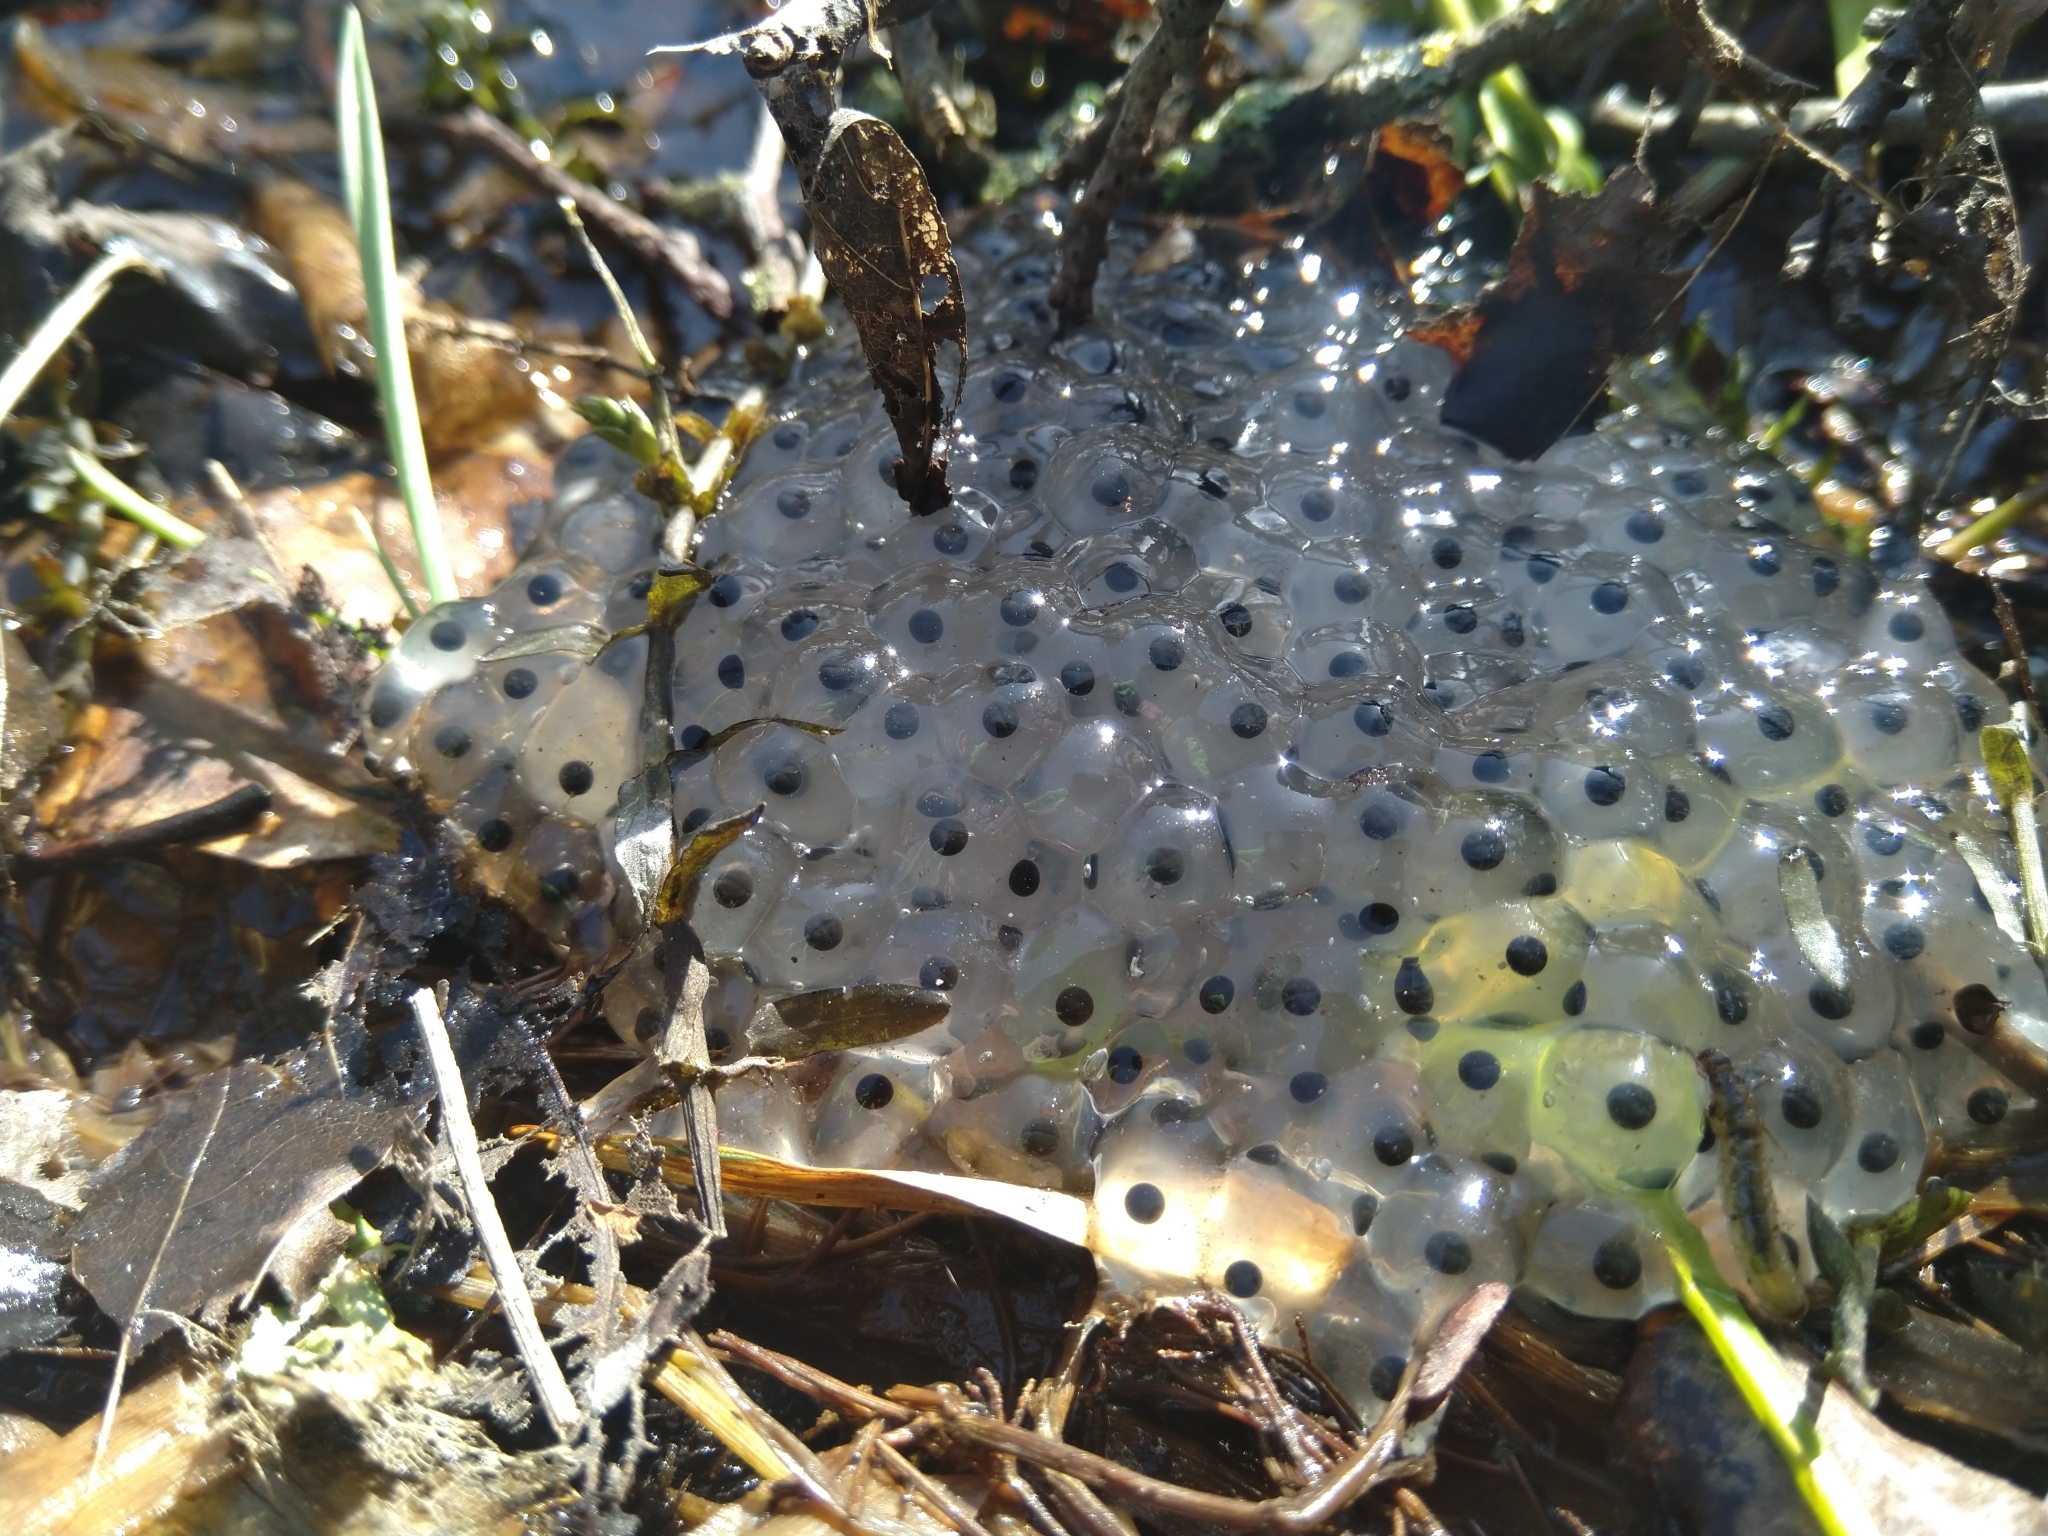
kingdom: Animalia
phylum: Chordata
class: Amphibia
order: Anura
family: Ranidae
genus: Rana
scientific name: Rana temporaria
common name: Common frog
